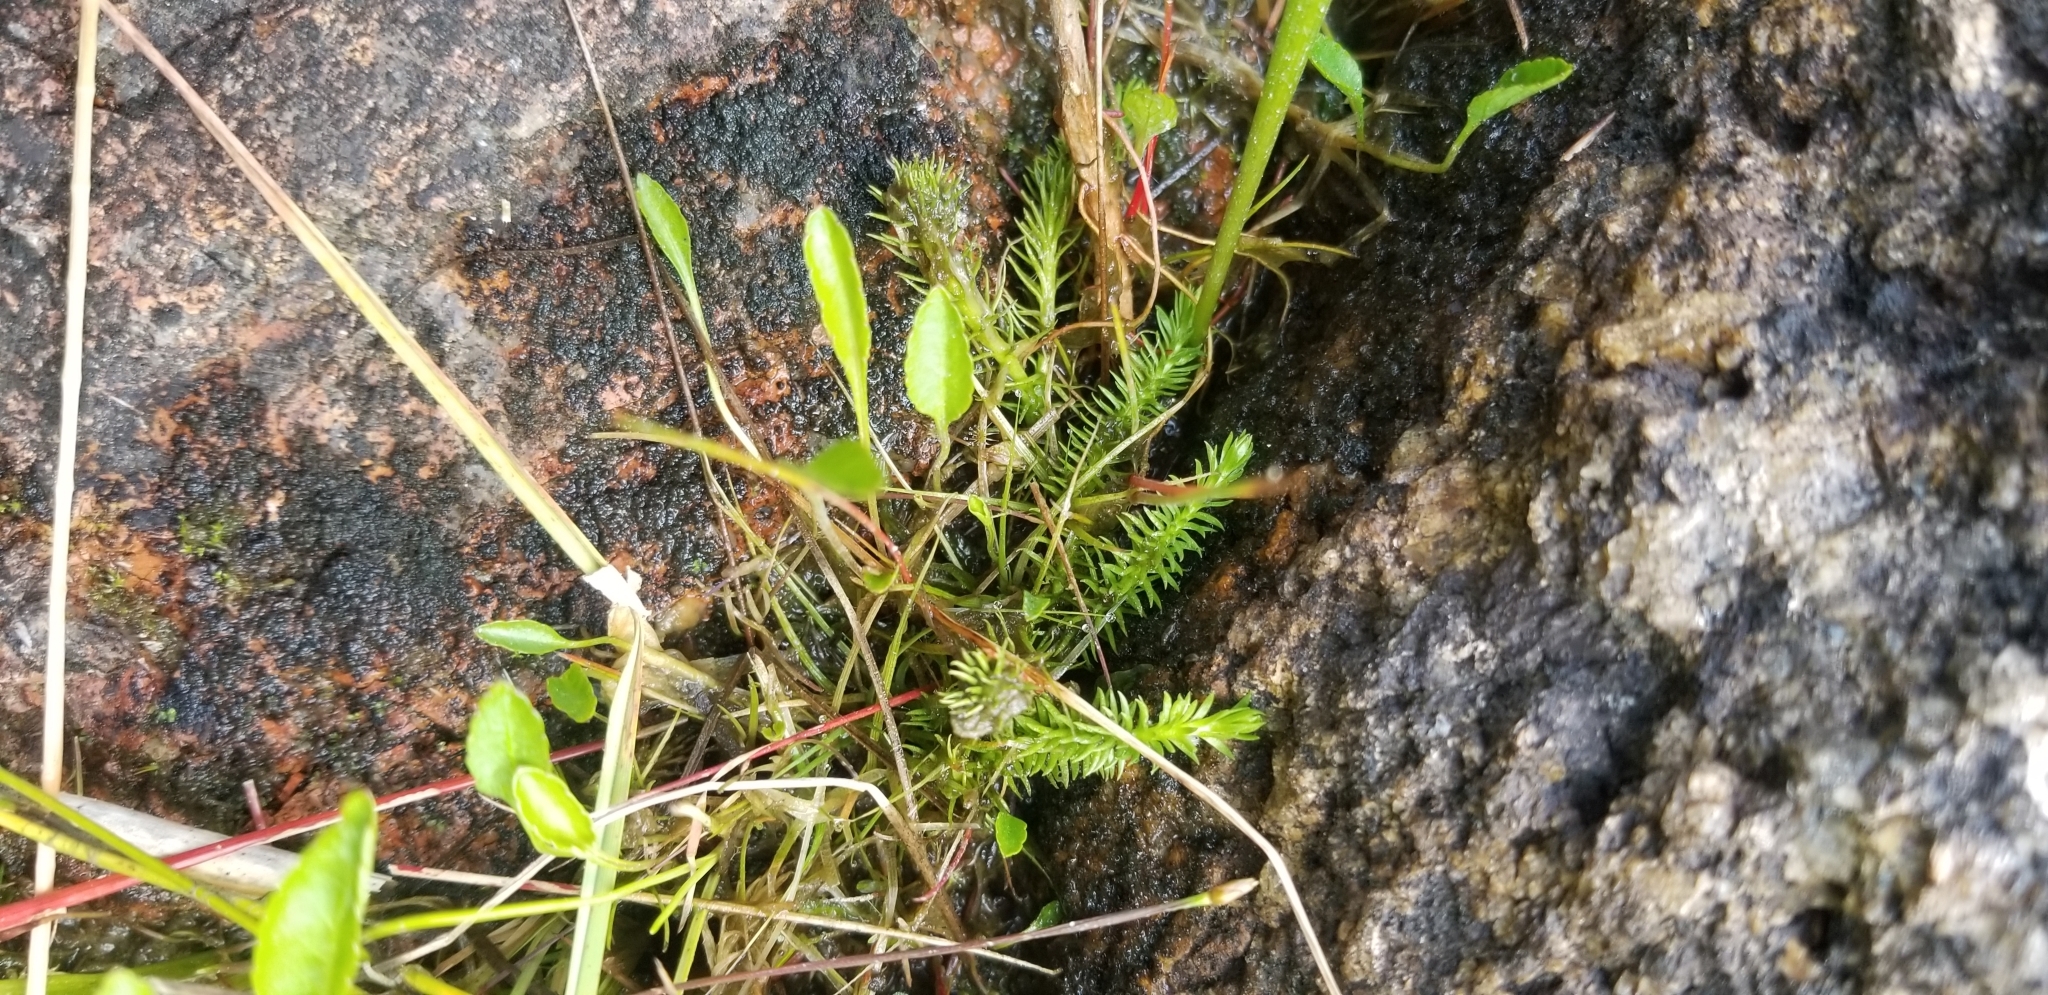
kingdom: Plantae
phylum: Tracheophyta
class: Lycopodiopsida
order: Lycopodiales
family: Lycopodiaceae
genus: Lycopodiella
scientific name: Lycopodiella inundata
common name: Marsh clubmoss
